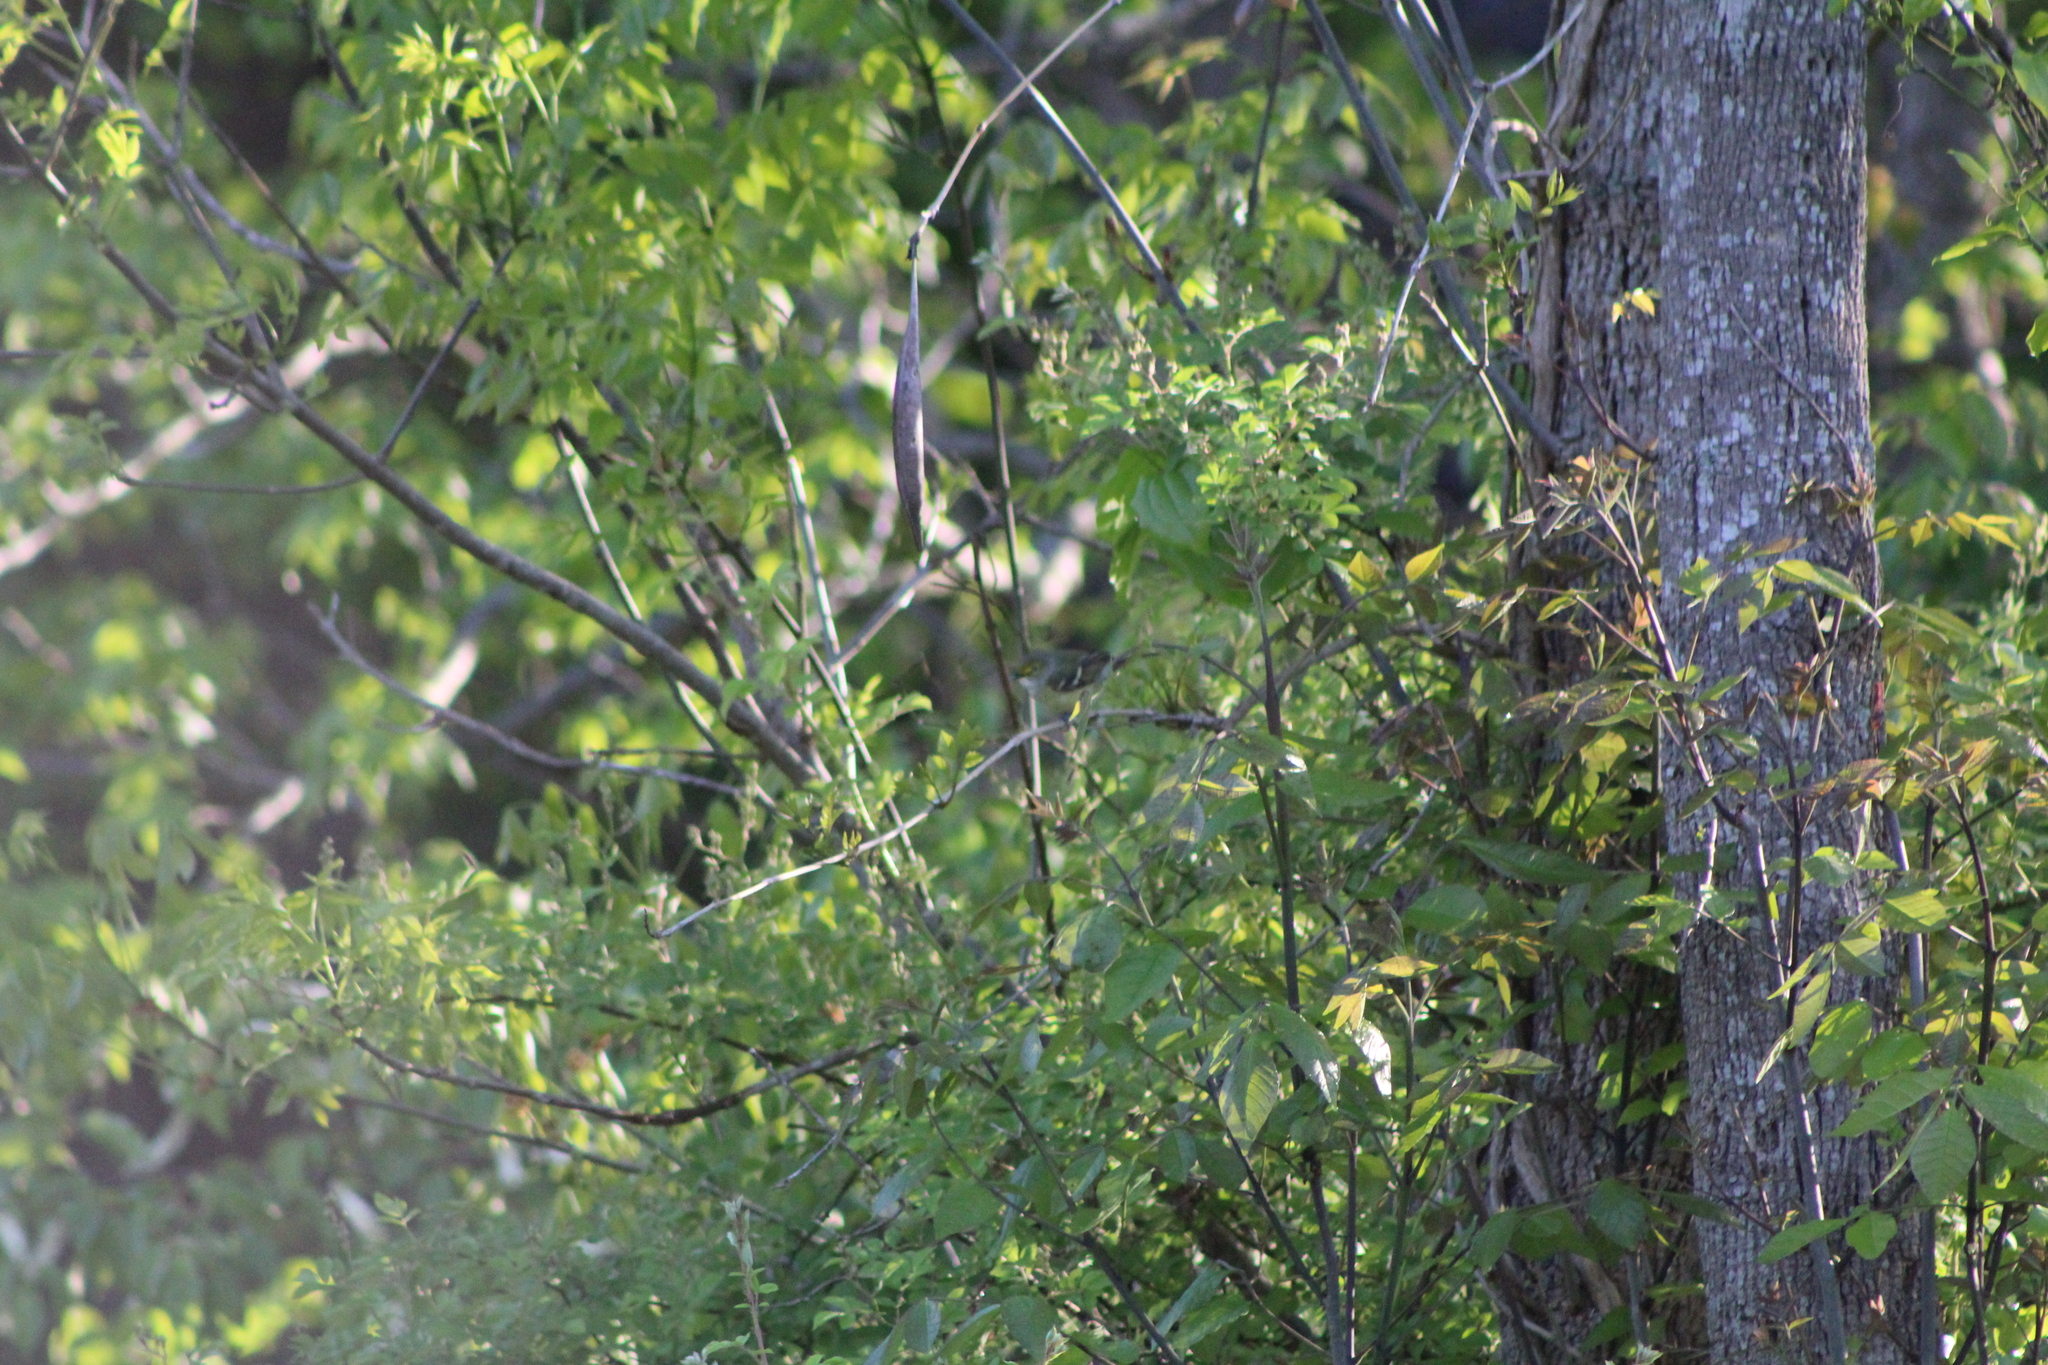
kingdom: Animalia
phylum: Chordata
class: Aves
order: Passeriformes
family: Vireonidae
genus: Vireo
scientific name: Vireo griseus
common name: White-eyed vireo
